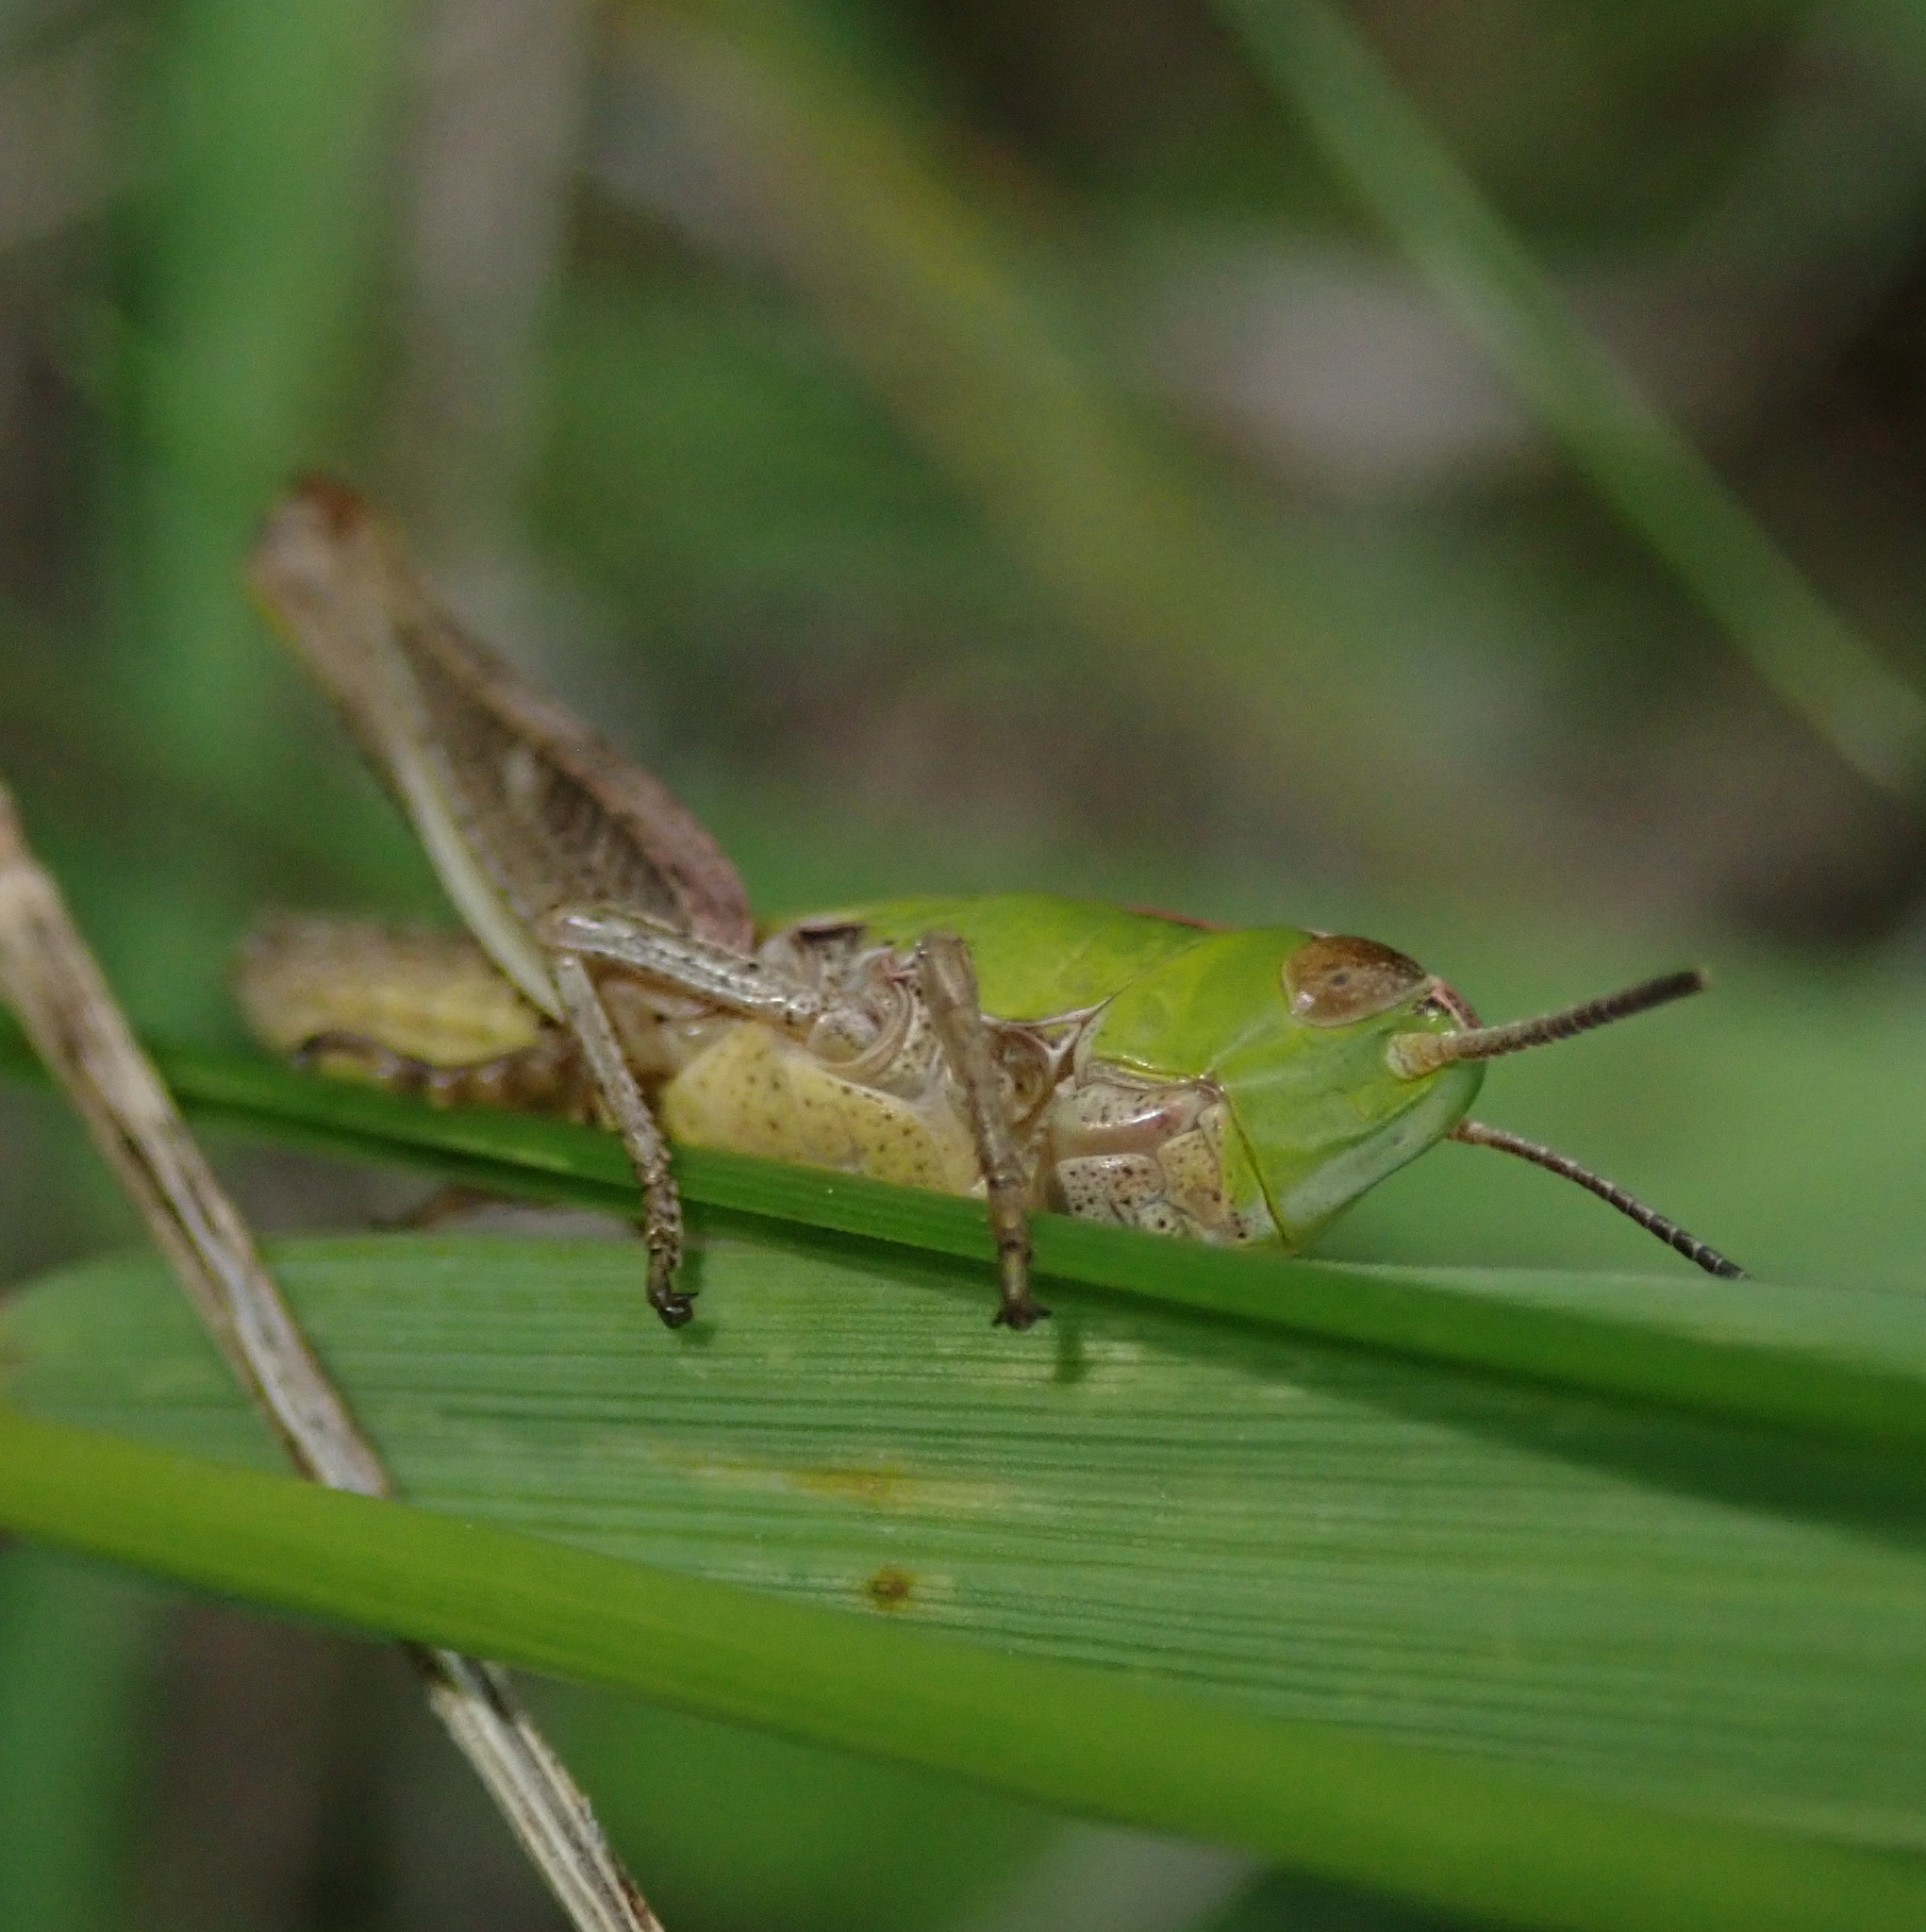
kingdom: Animalia
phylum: Arthropoda
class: Insecta
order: Orthoptera
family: Acrididae
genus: Stenobothrus
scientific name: Stenobothrus lineatus
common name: Stripe-winged grasshopper
